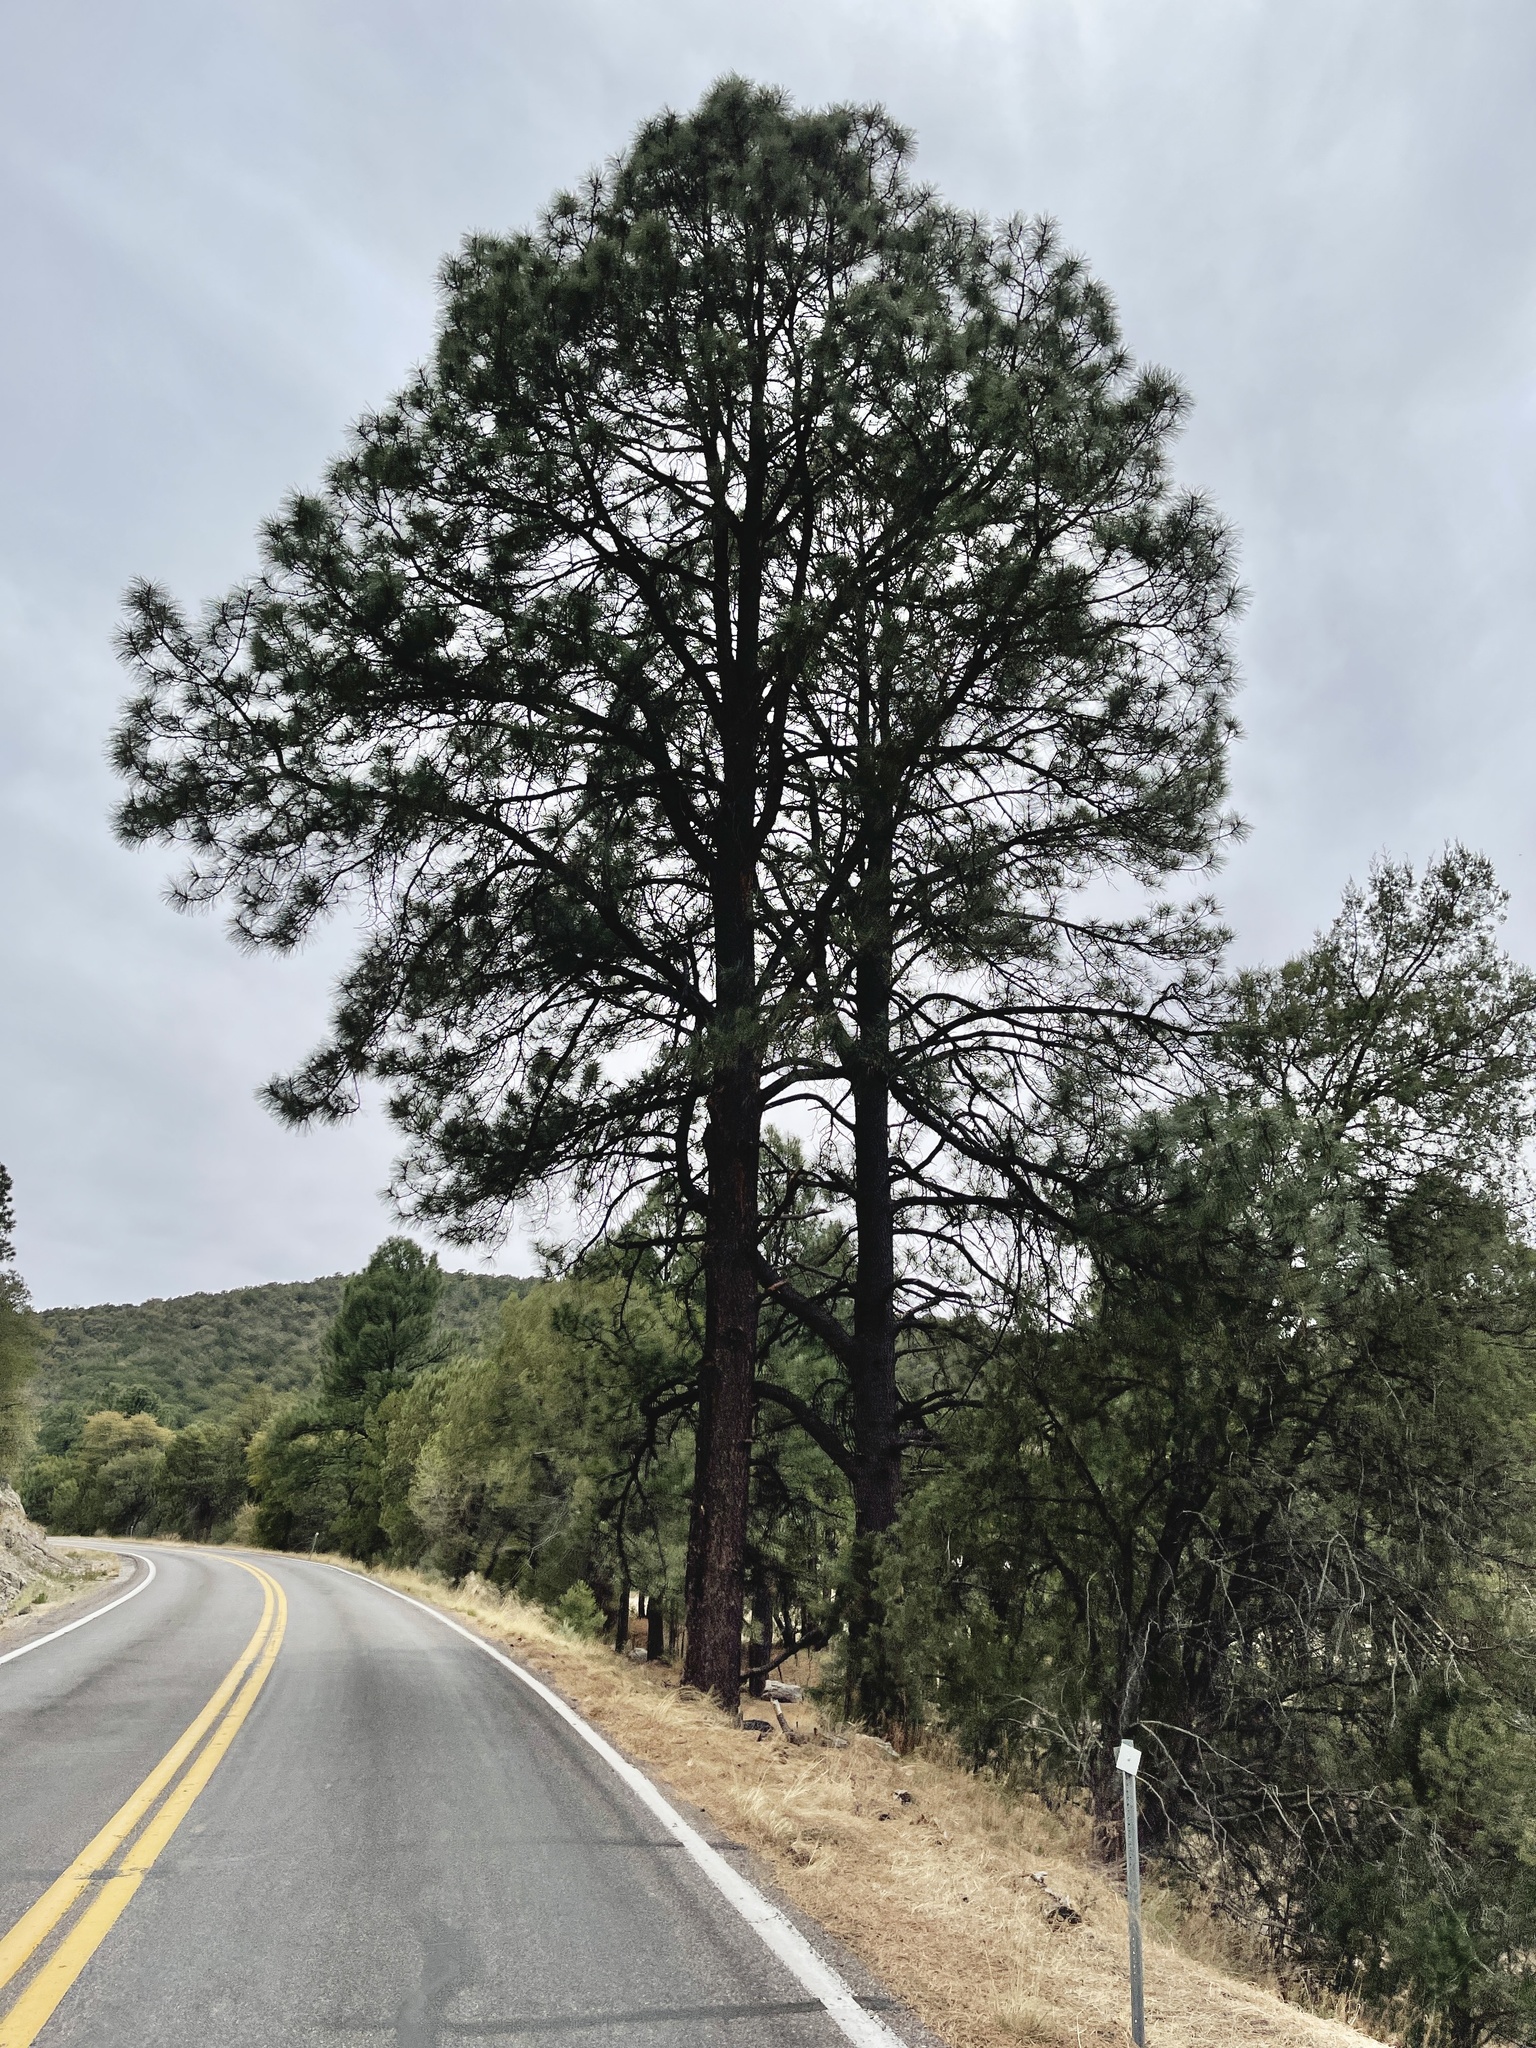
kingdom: Plantae
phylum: Tracheophyta
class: Pinopsida
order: Pinales
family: Pinaceae
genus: Pinus
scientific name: Pinus ponderosa
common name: Western yellow-pine
